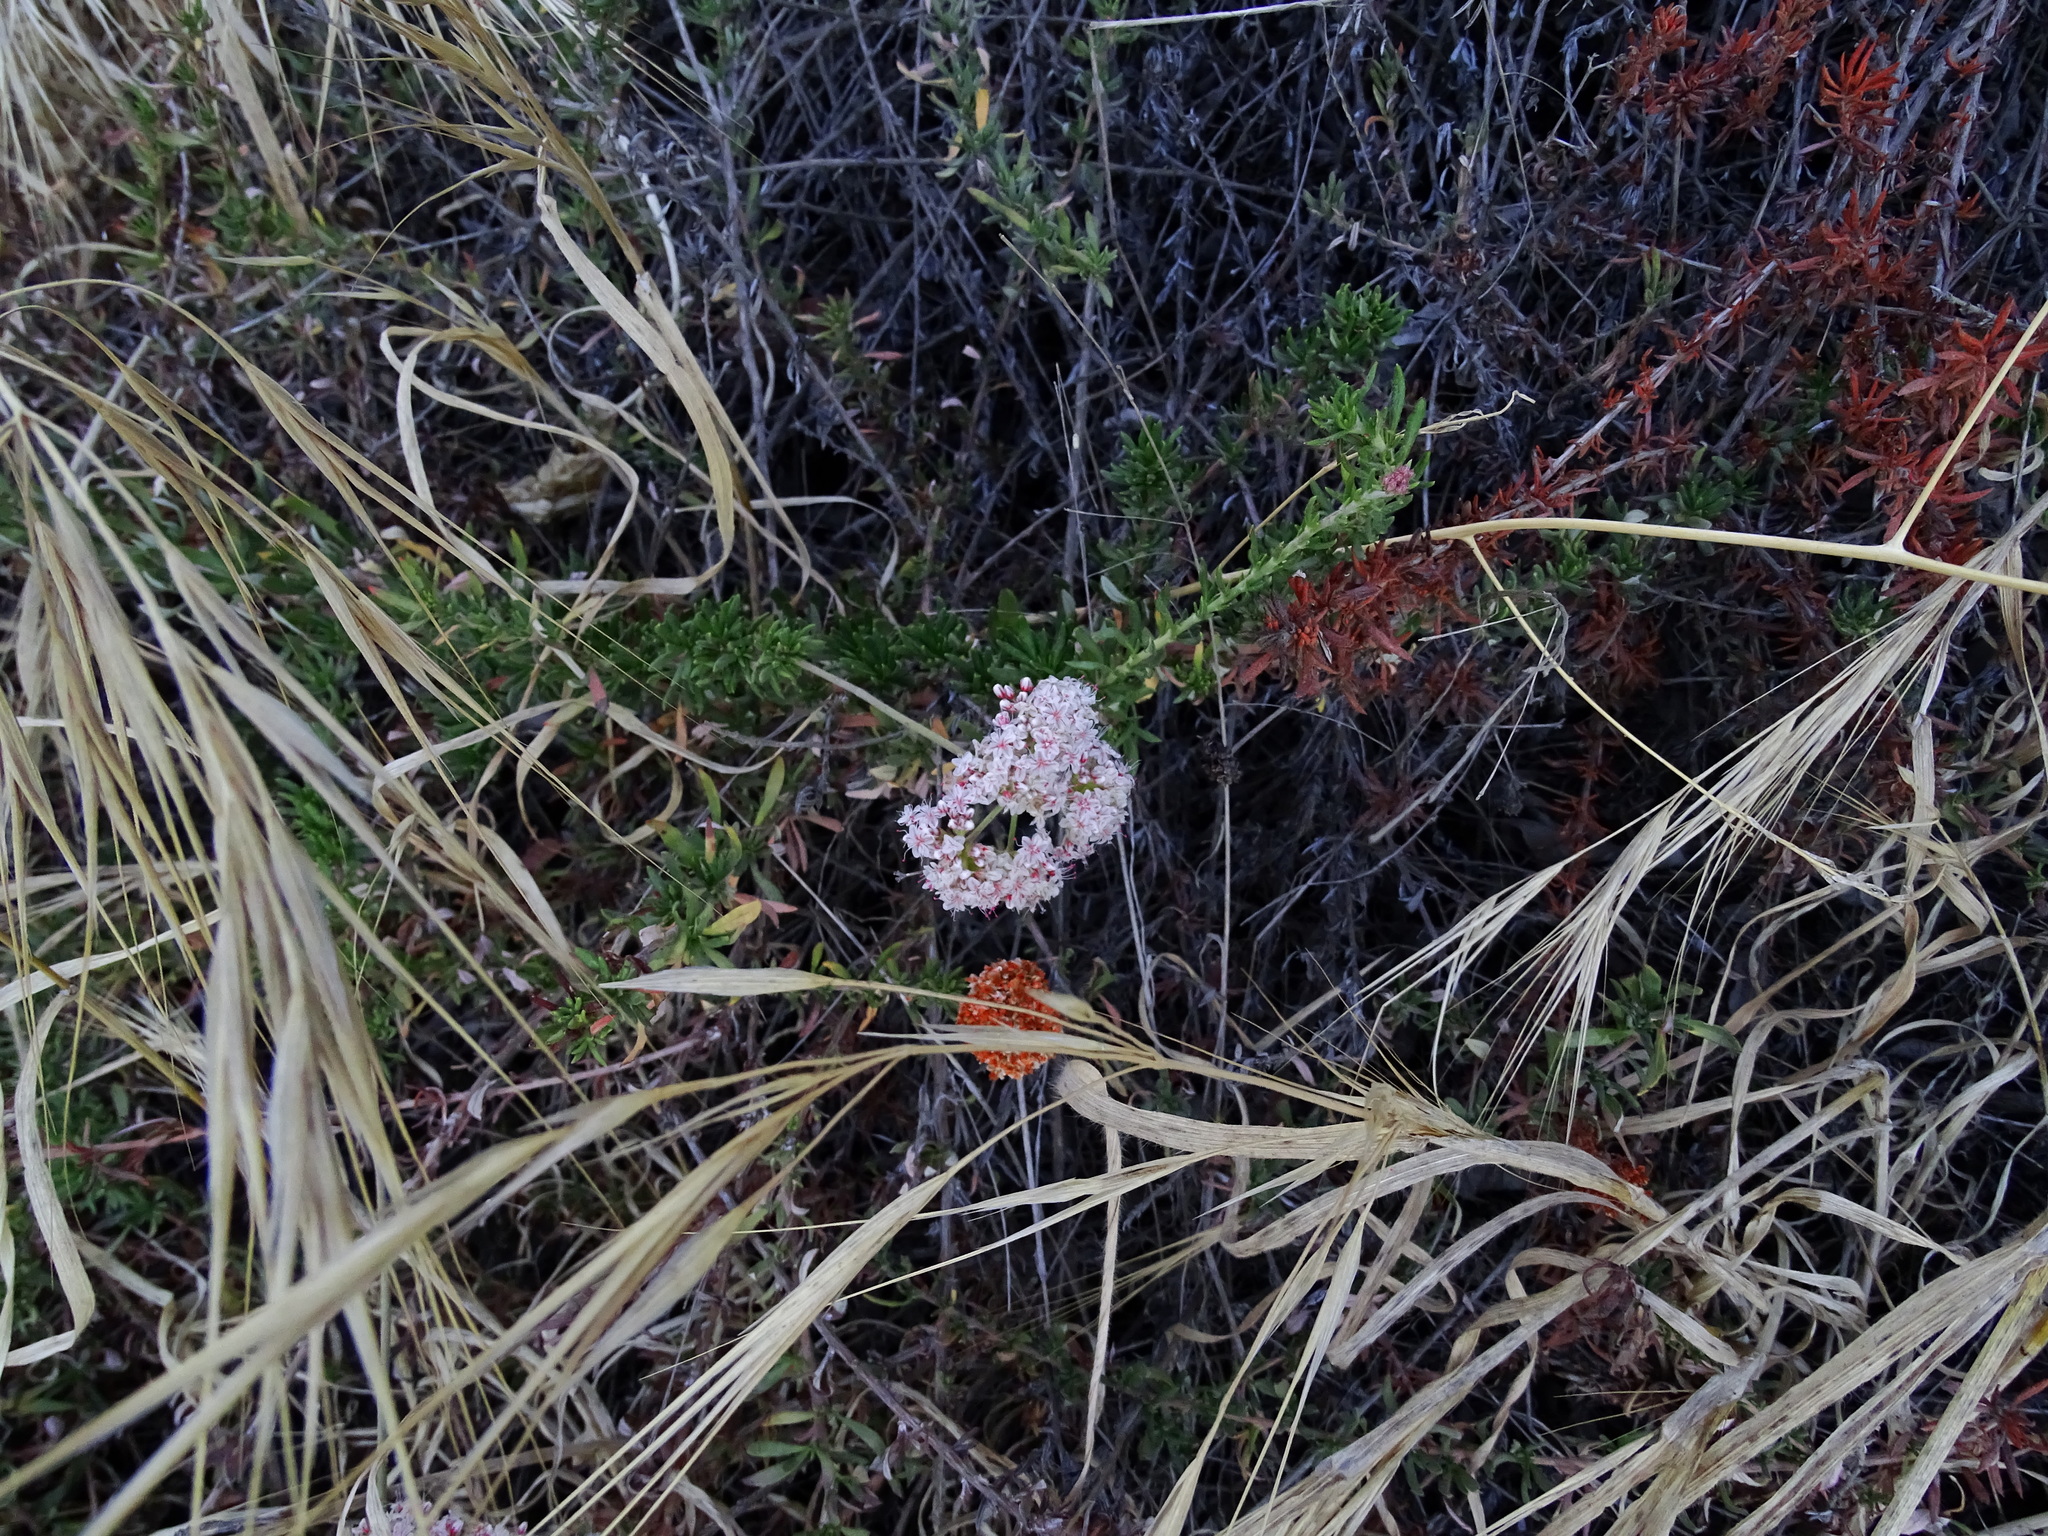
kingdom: Plantae
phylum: Tracheophyta
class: Magnoliopsida
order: Caryophyllales
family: Polygonaceae
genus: Eriogonum
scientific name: Eriogonum fasciculatum
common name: California wild buckwheat
